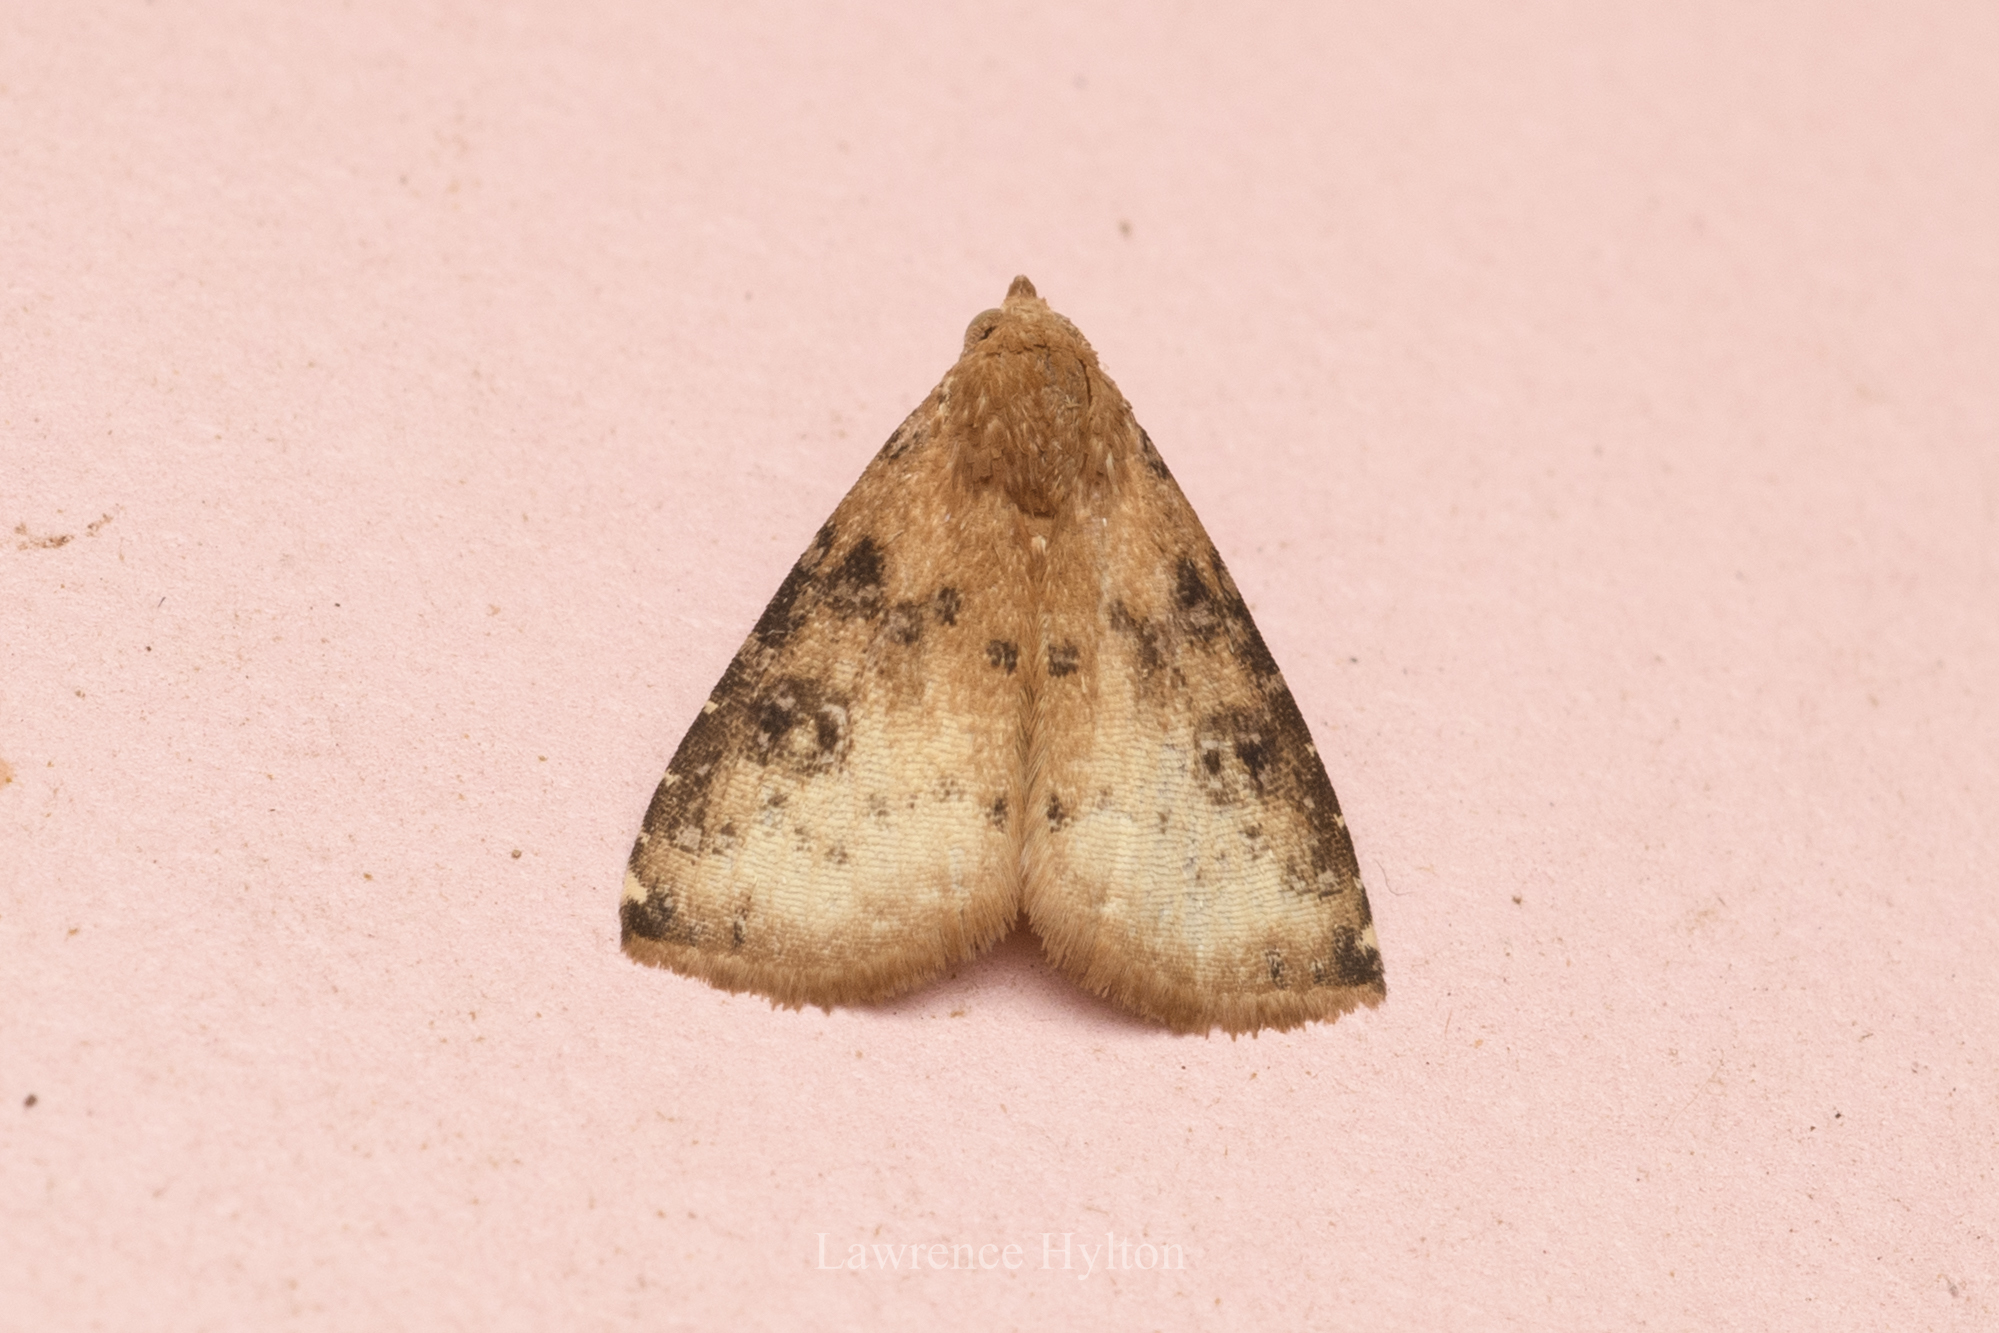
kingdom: Animalia
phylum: Arthropoda
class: Insecta
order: Lepidoptera
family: Erebidae
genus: Rivula
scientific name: Rivula sordida
